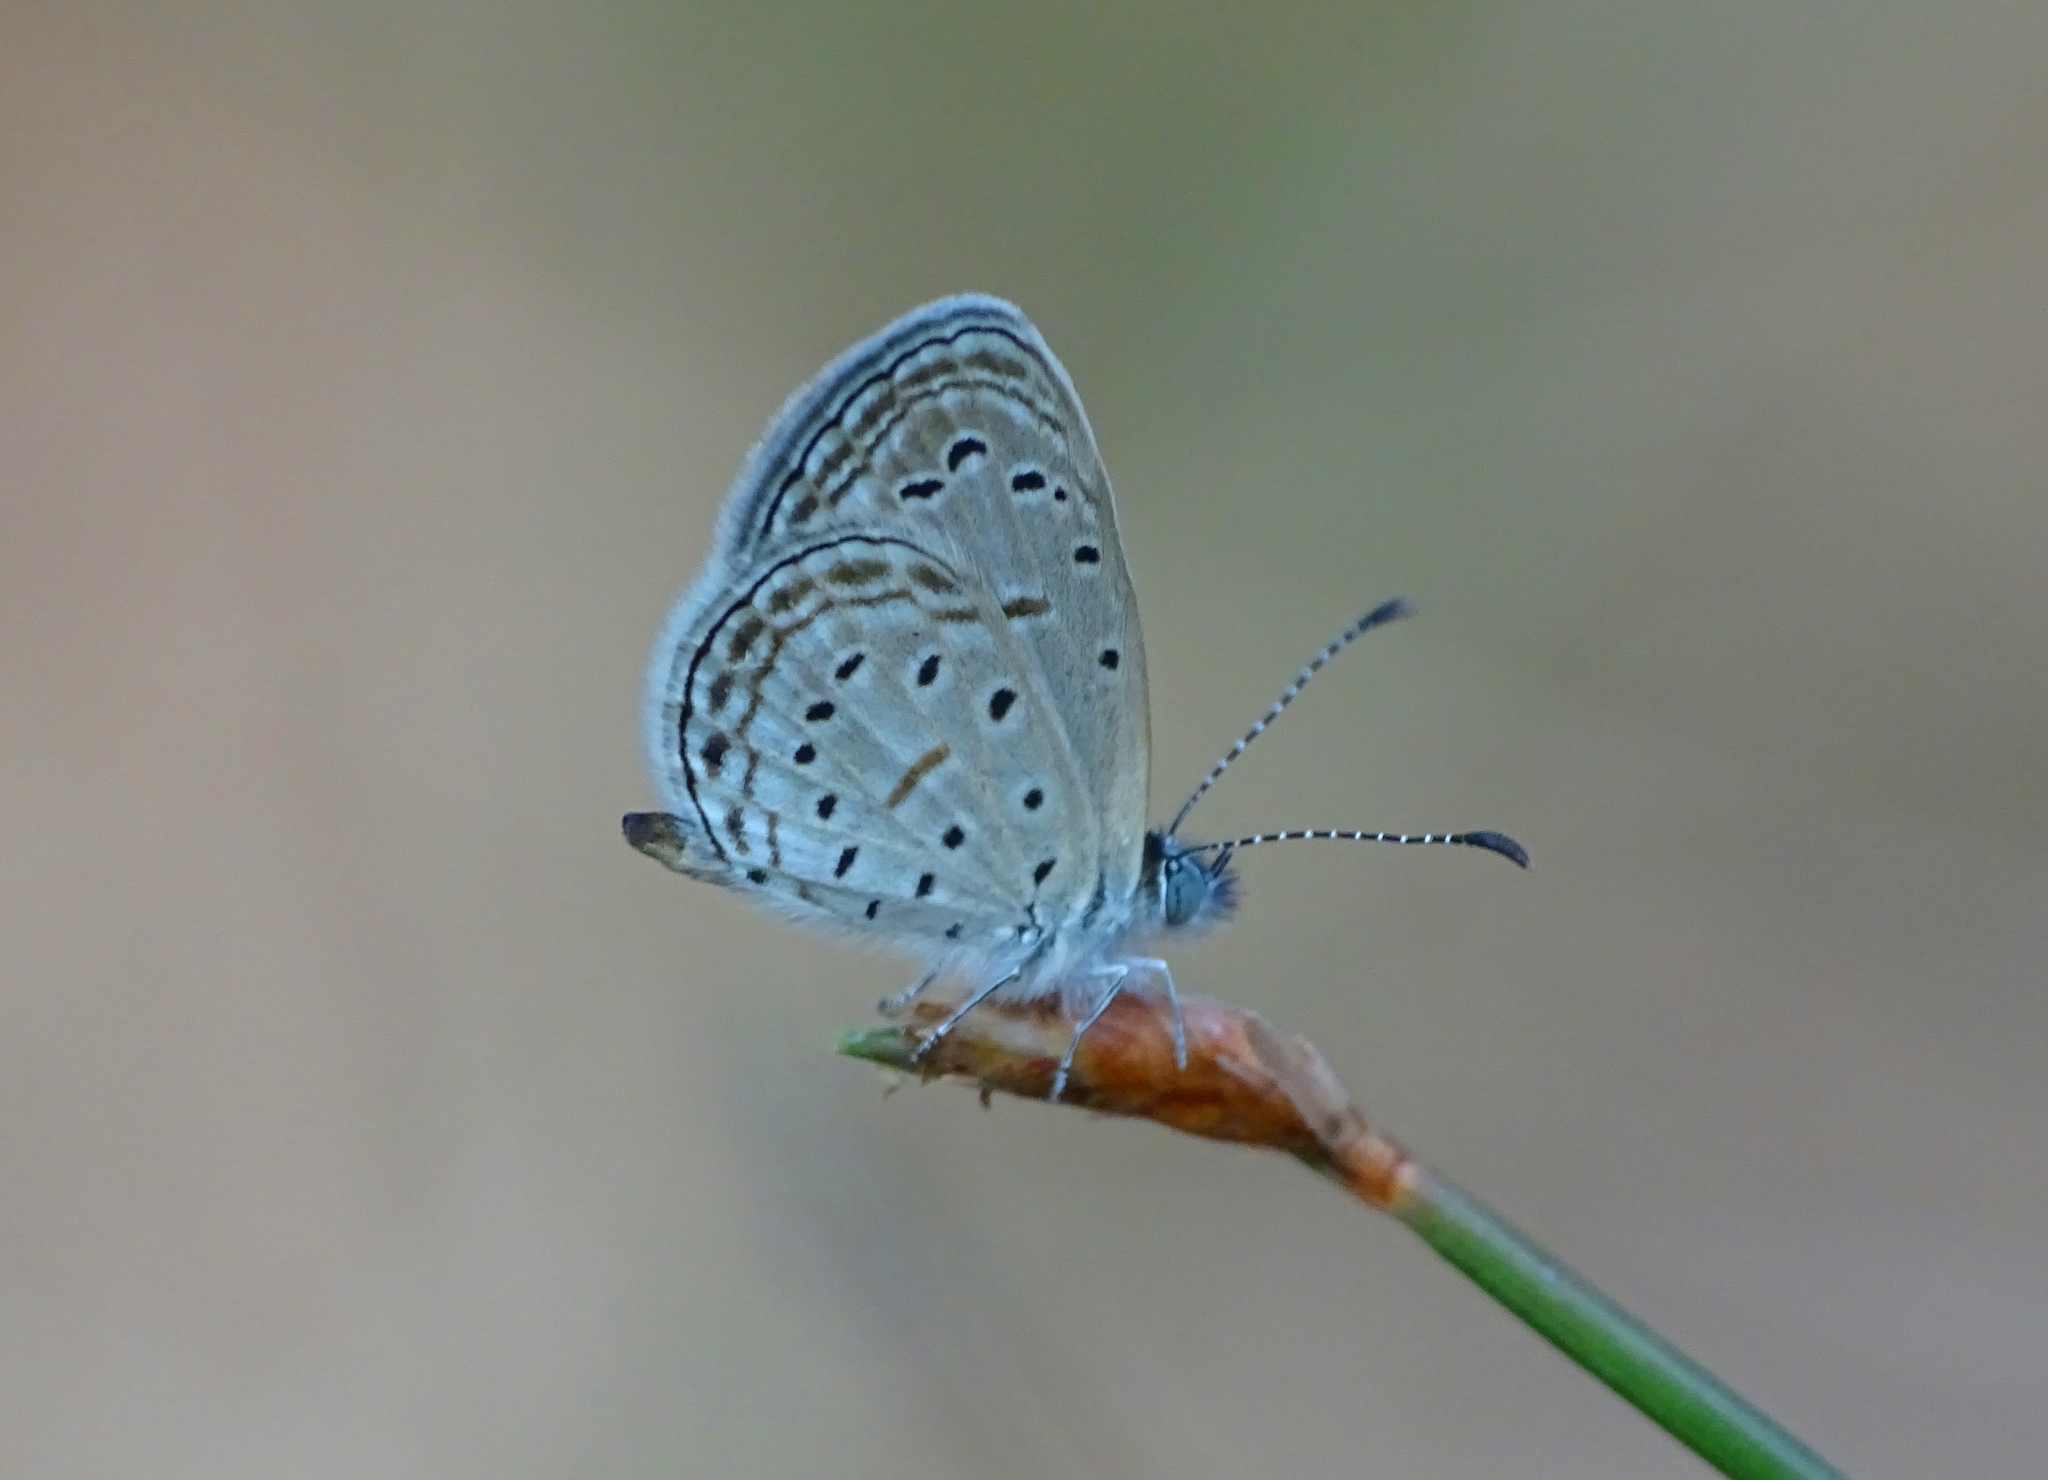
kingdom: Animalia
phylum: Arthropoda
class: Insecta
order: Lepidoptera
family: Lycaenidae
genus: Zizula
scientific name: Zizula hylax
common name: Gaika blue
